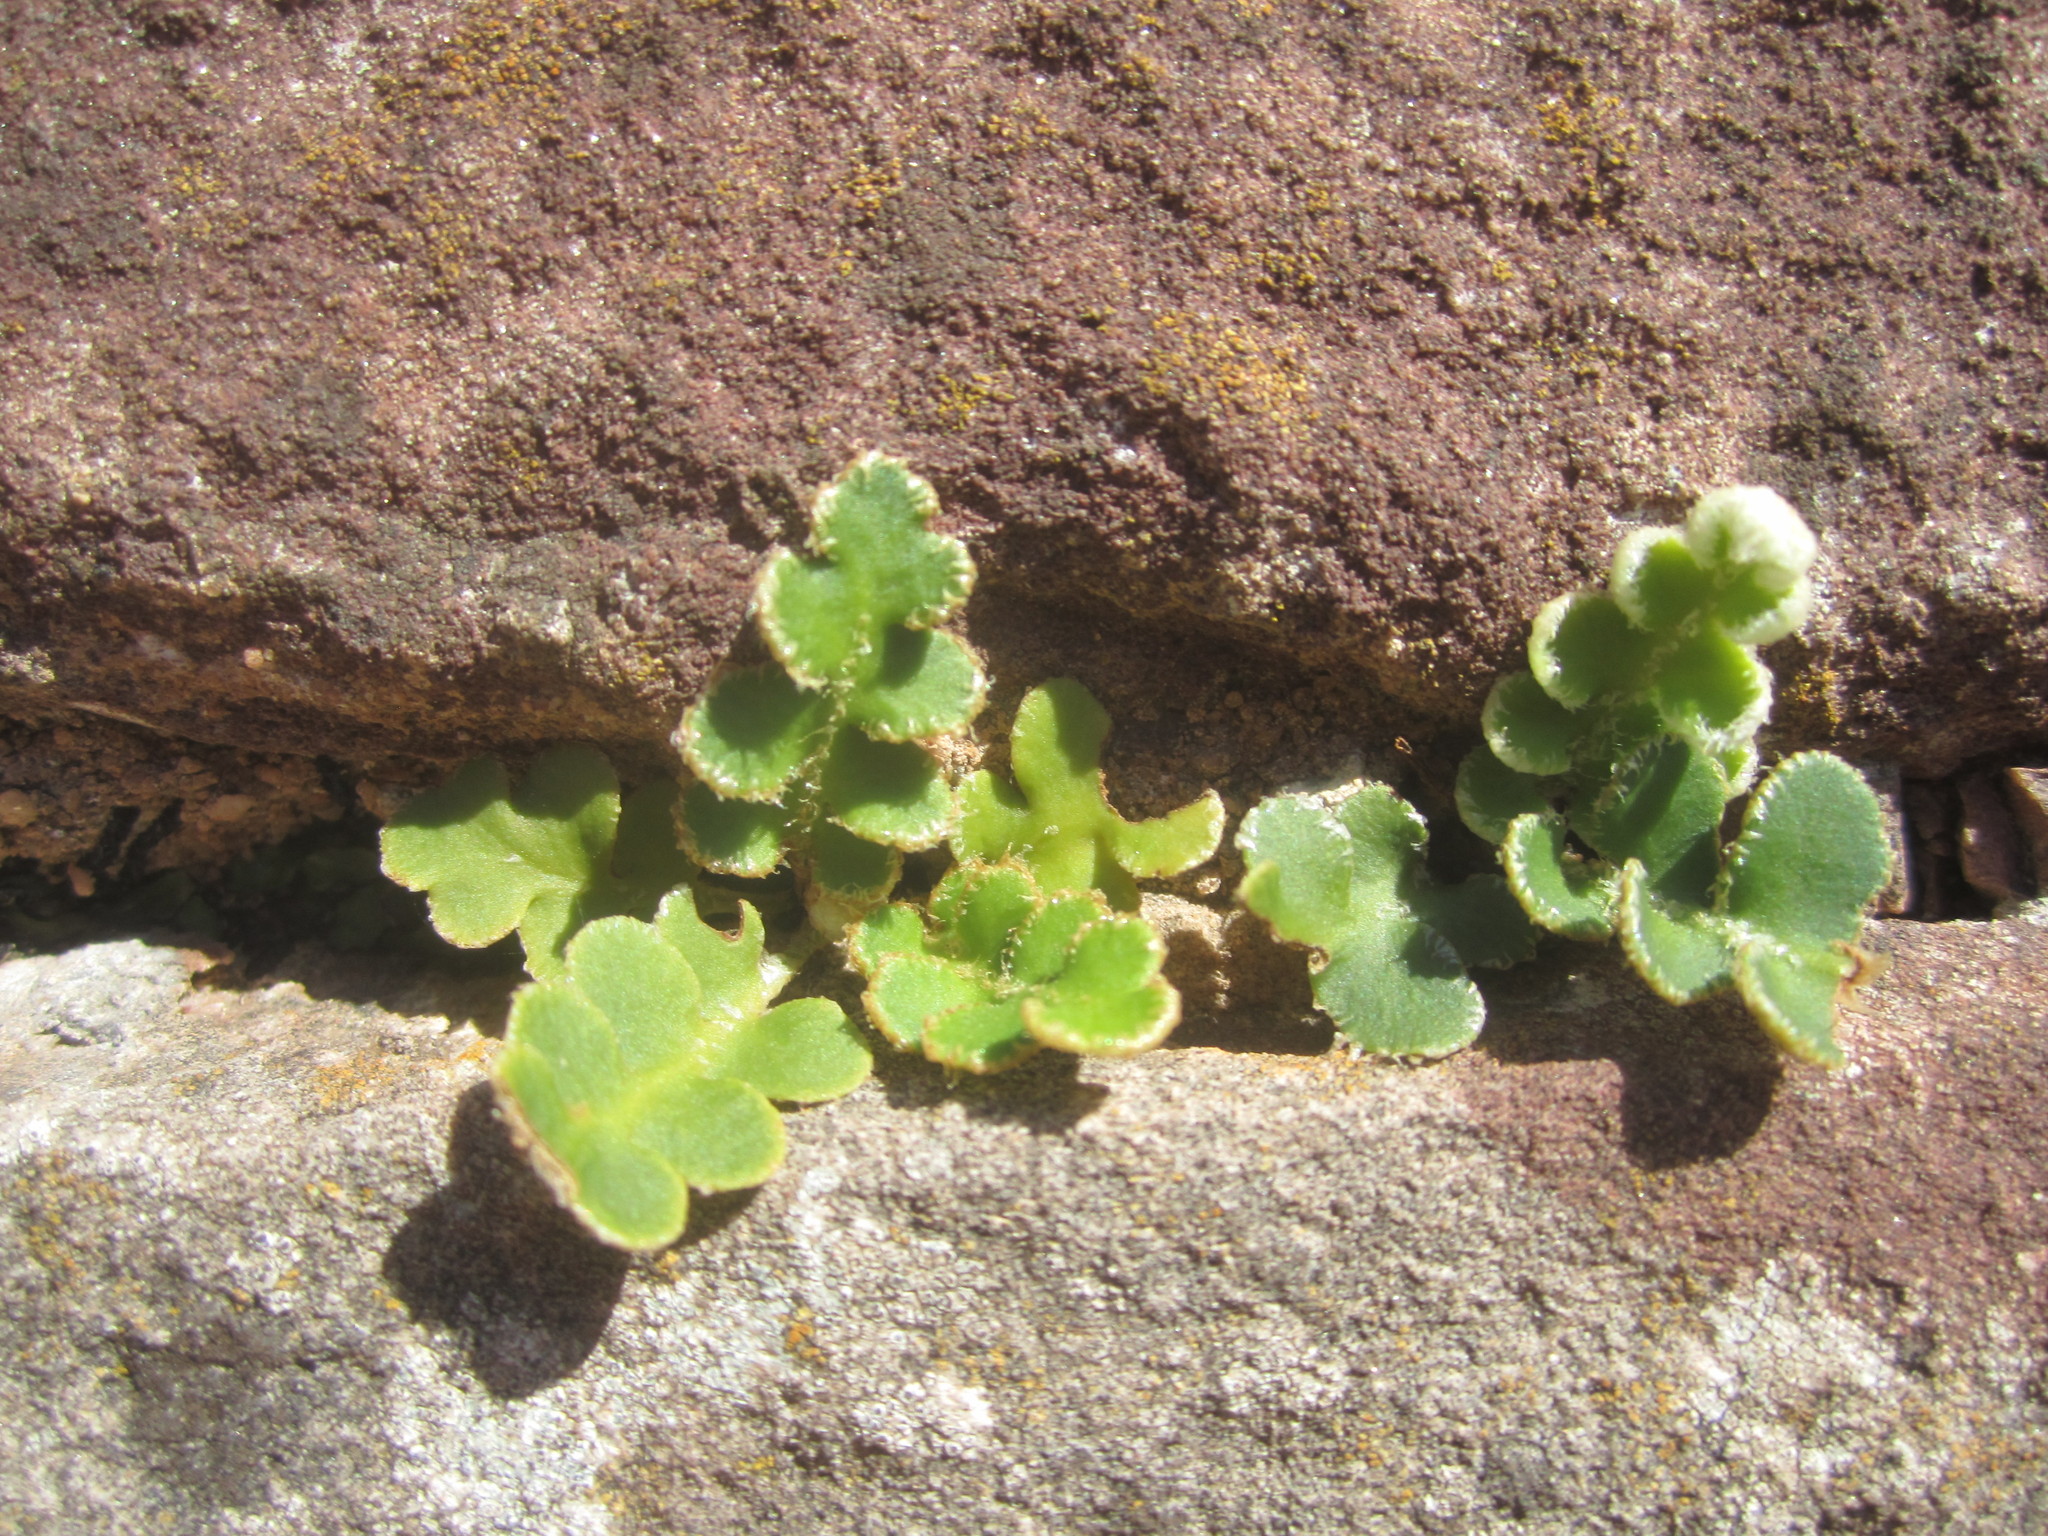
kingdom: Plantae
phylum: Tracheophyta
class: Polypodiopsida
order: Polypodiales
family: Aspleniaceae
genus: Asplenium
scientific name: Asplenium ceterach
